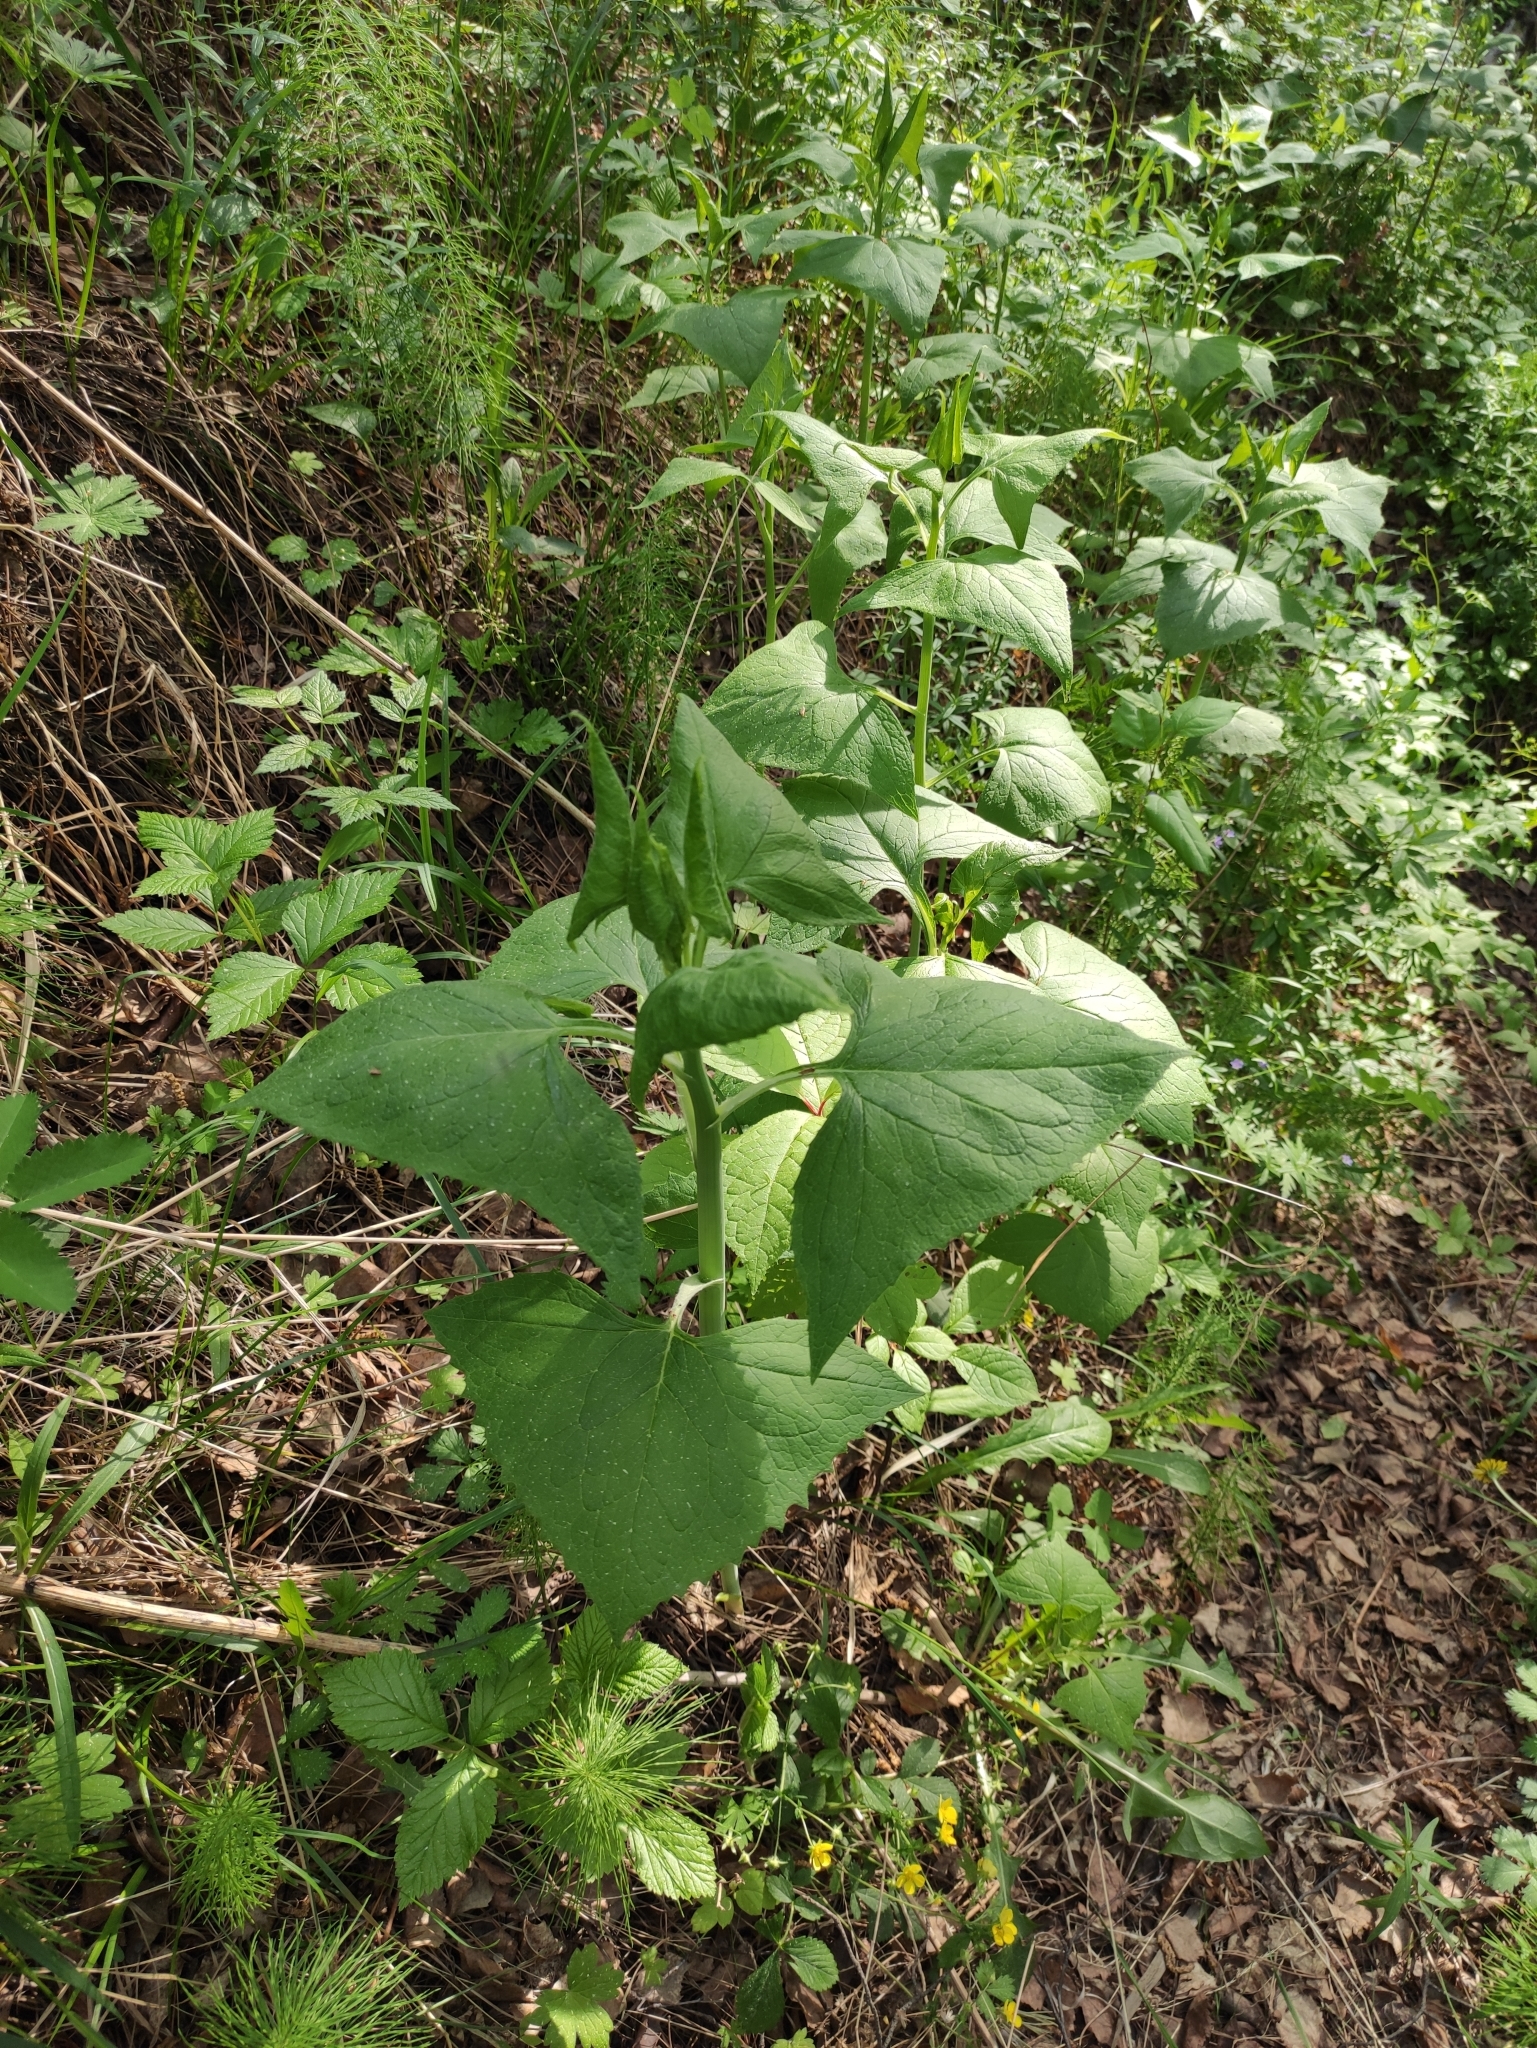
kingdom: Plantae
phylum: Tracheophyta
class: Magnoliopsida
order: Asterales
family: Asteraceae
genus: Parasenecio
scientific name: Parasenecio hastatus
